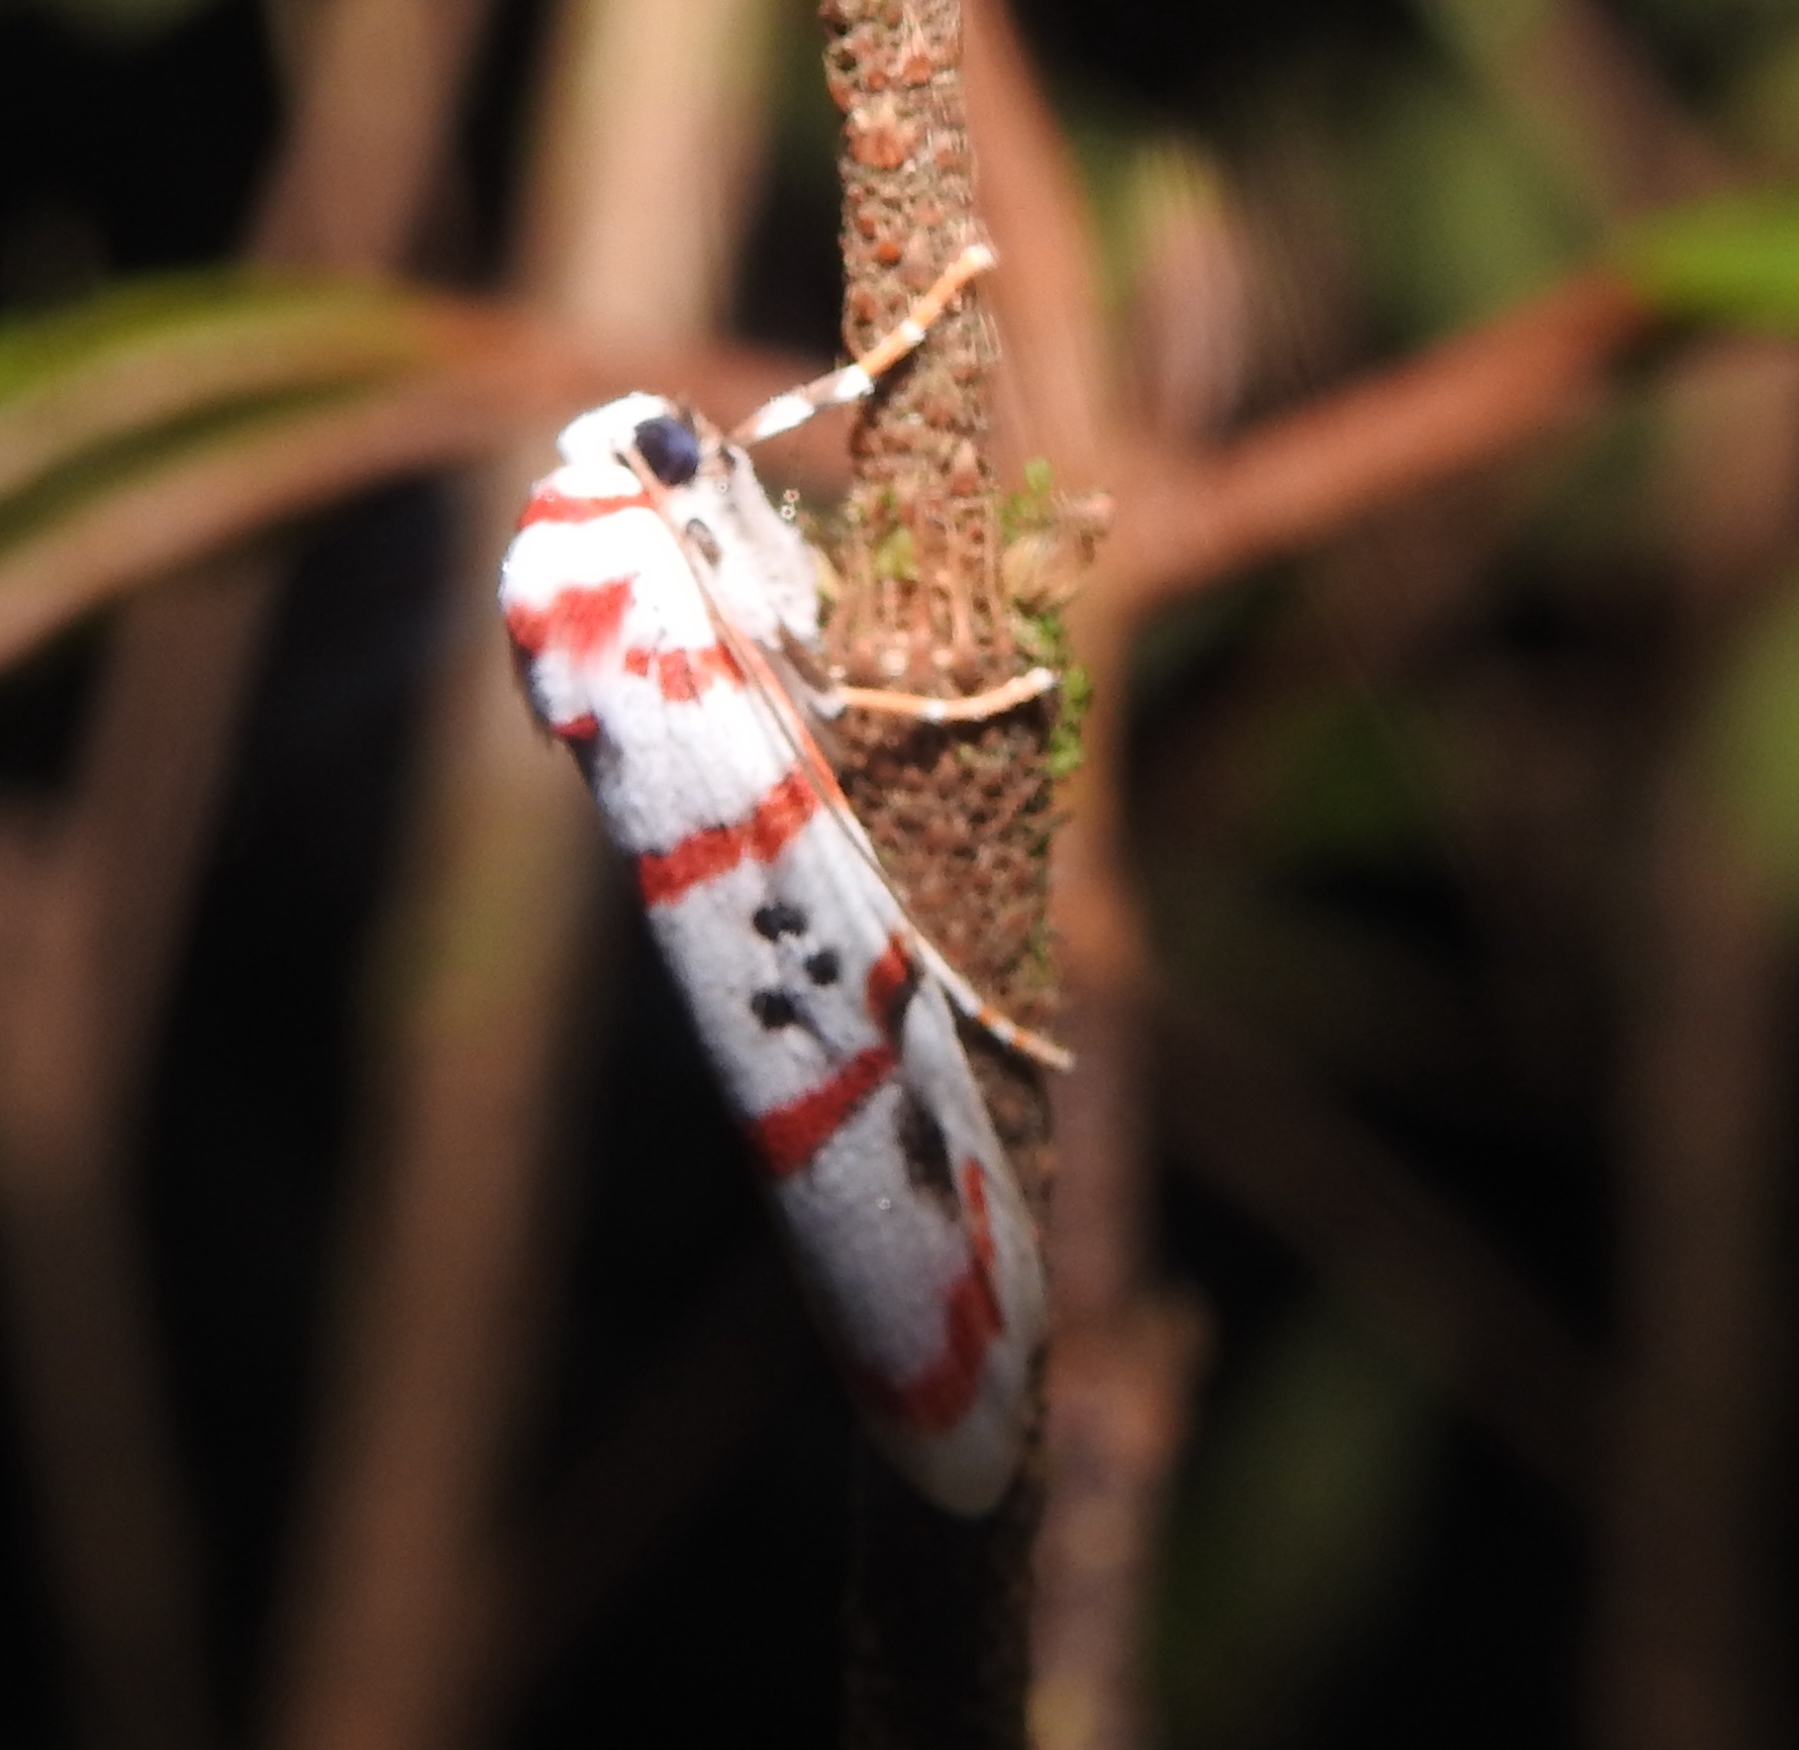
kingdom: Animalia
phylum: Arthropoda
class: Insecta
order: Lepidoptera
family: Erebidae
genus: Cyana
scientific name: Cyana peregrina
